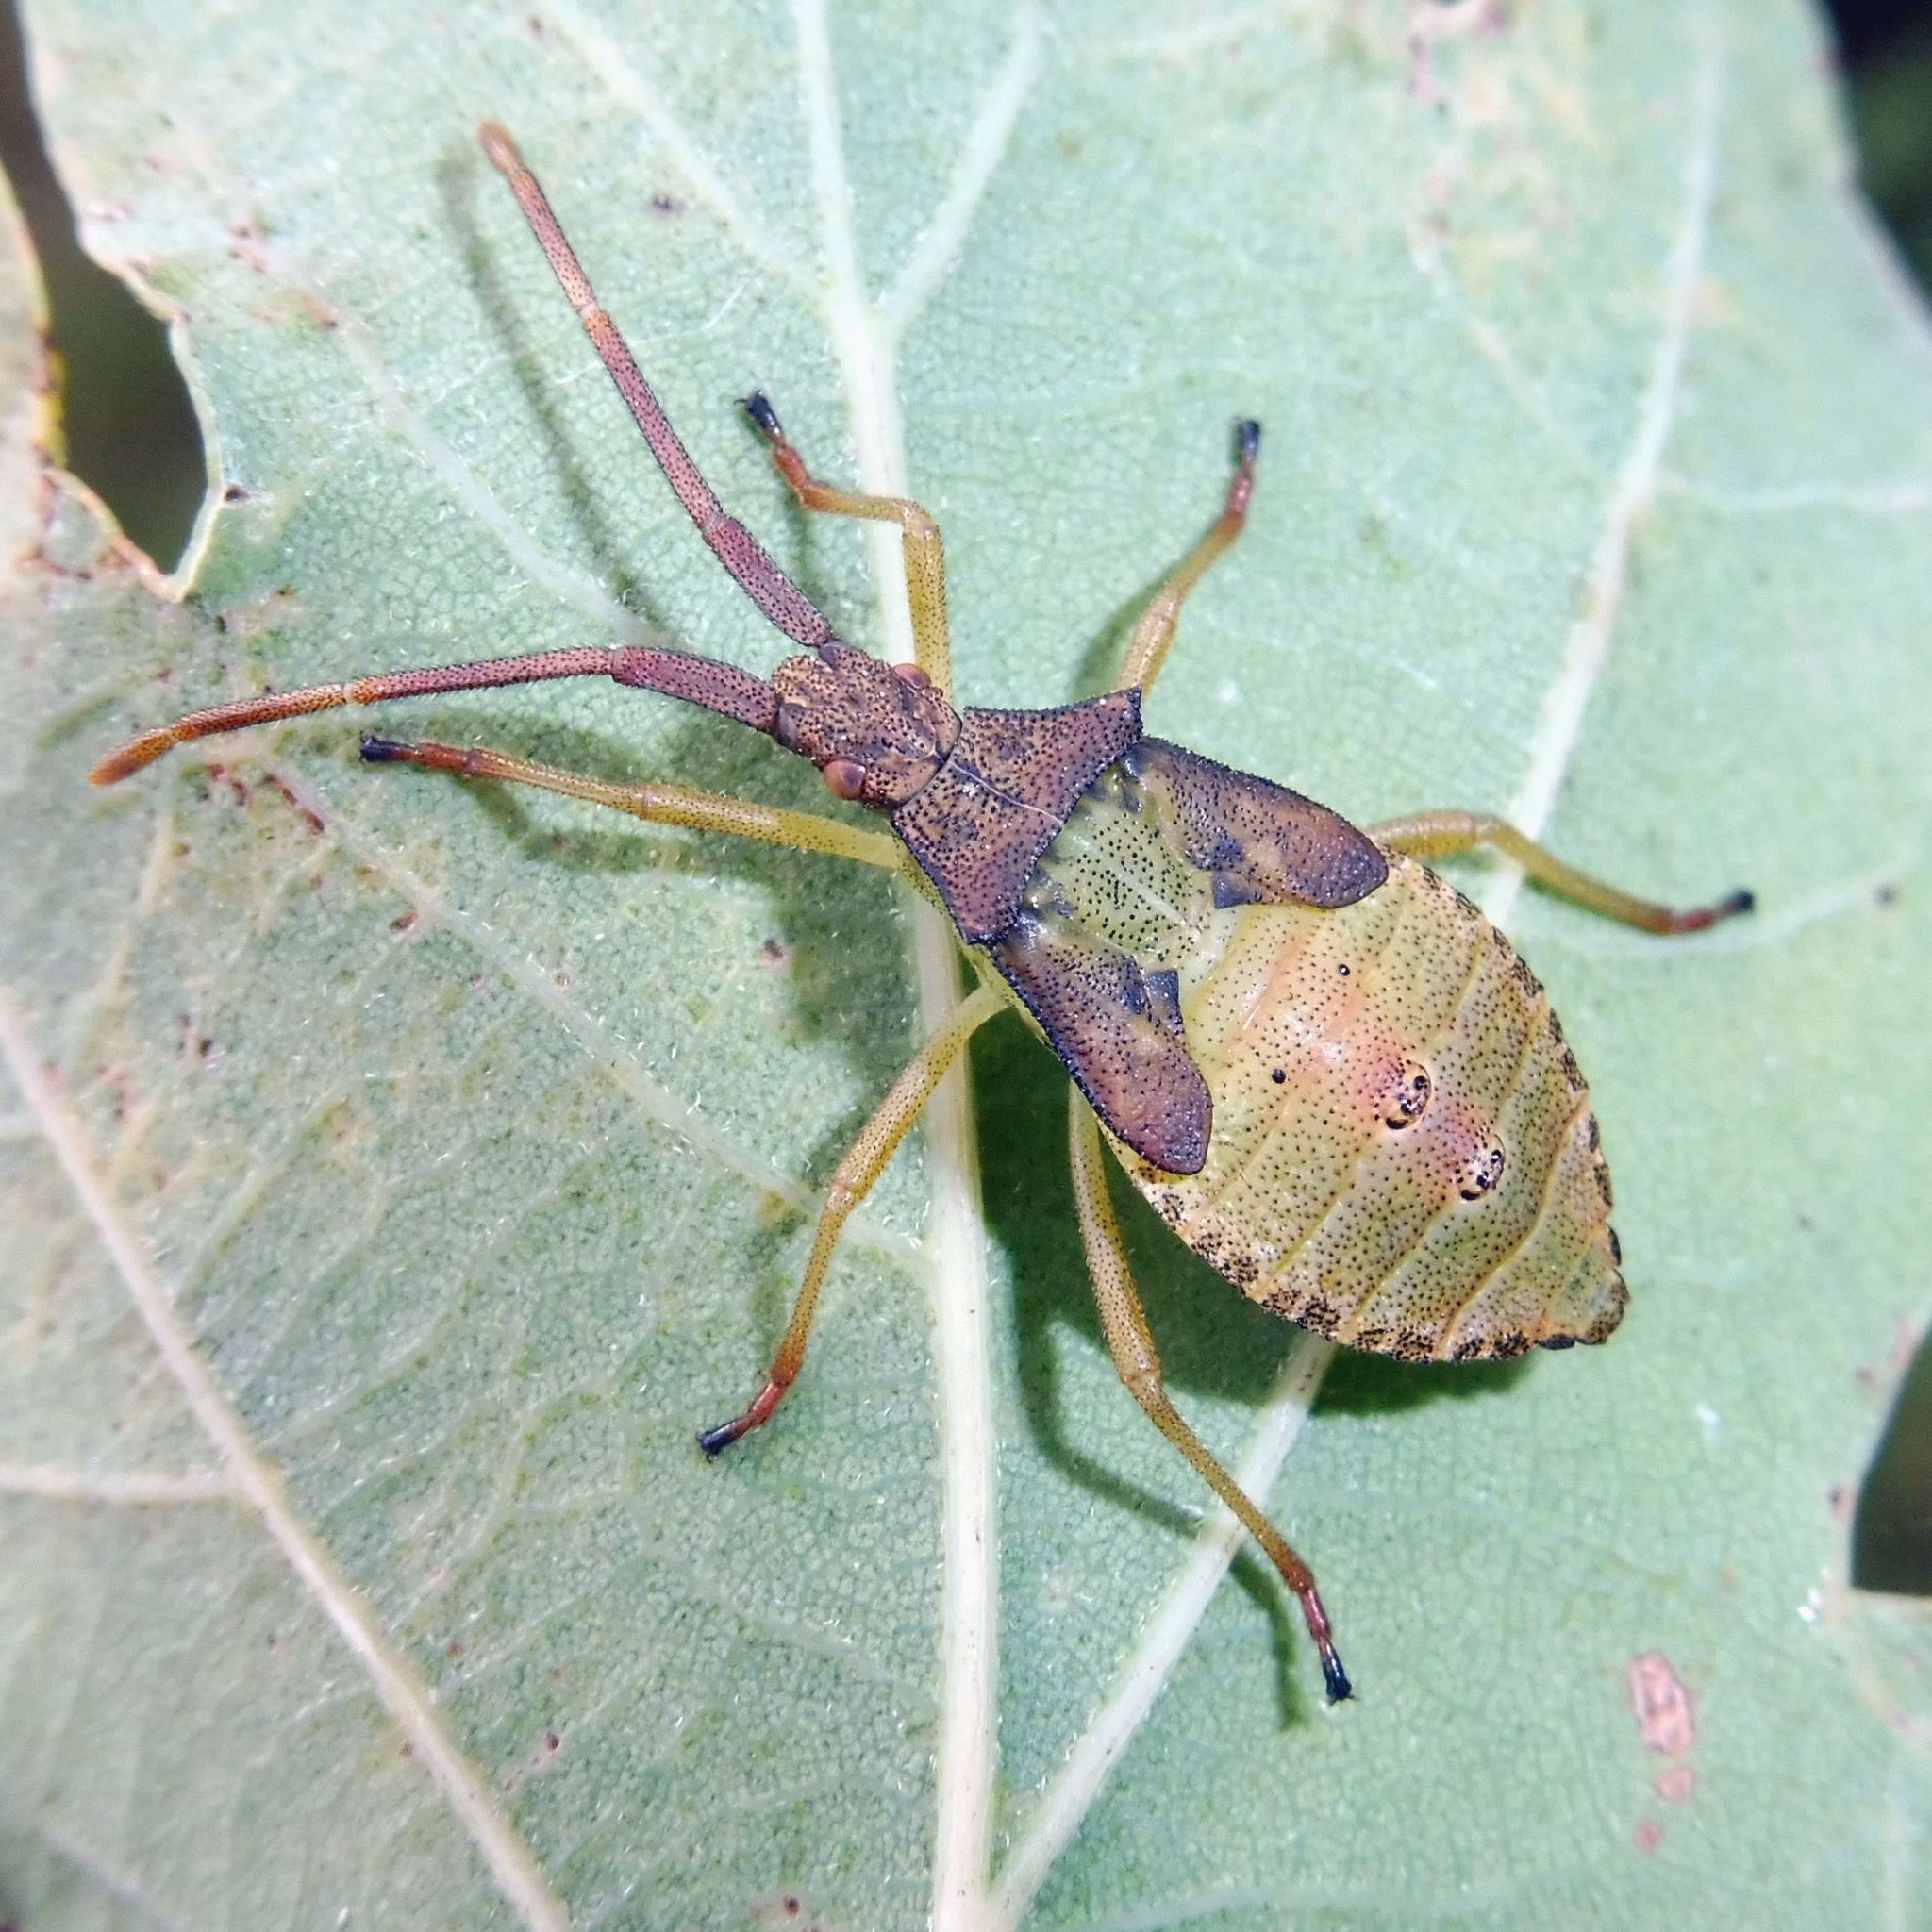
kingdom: Animalia
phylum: Arthropoda
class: Insecta
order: Hemiptera
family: Coreidae
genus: Gonocerus
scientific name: Gonocerus acuteangulatus
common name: Box bug
